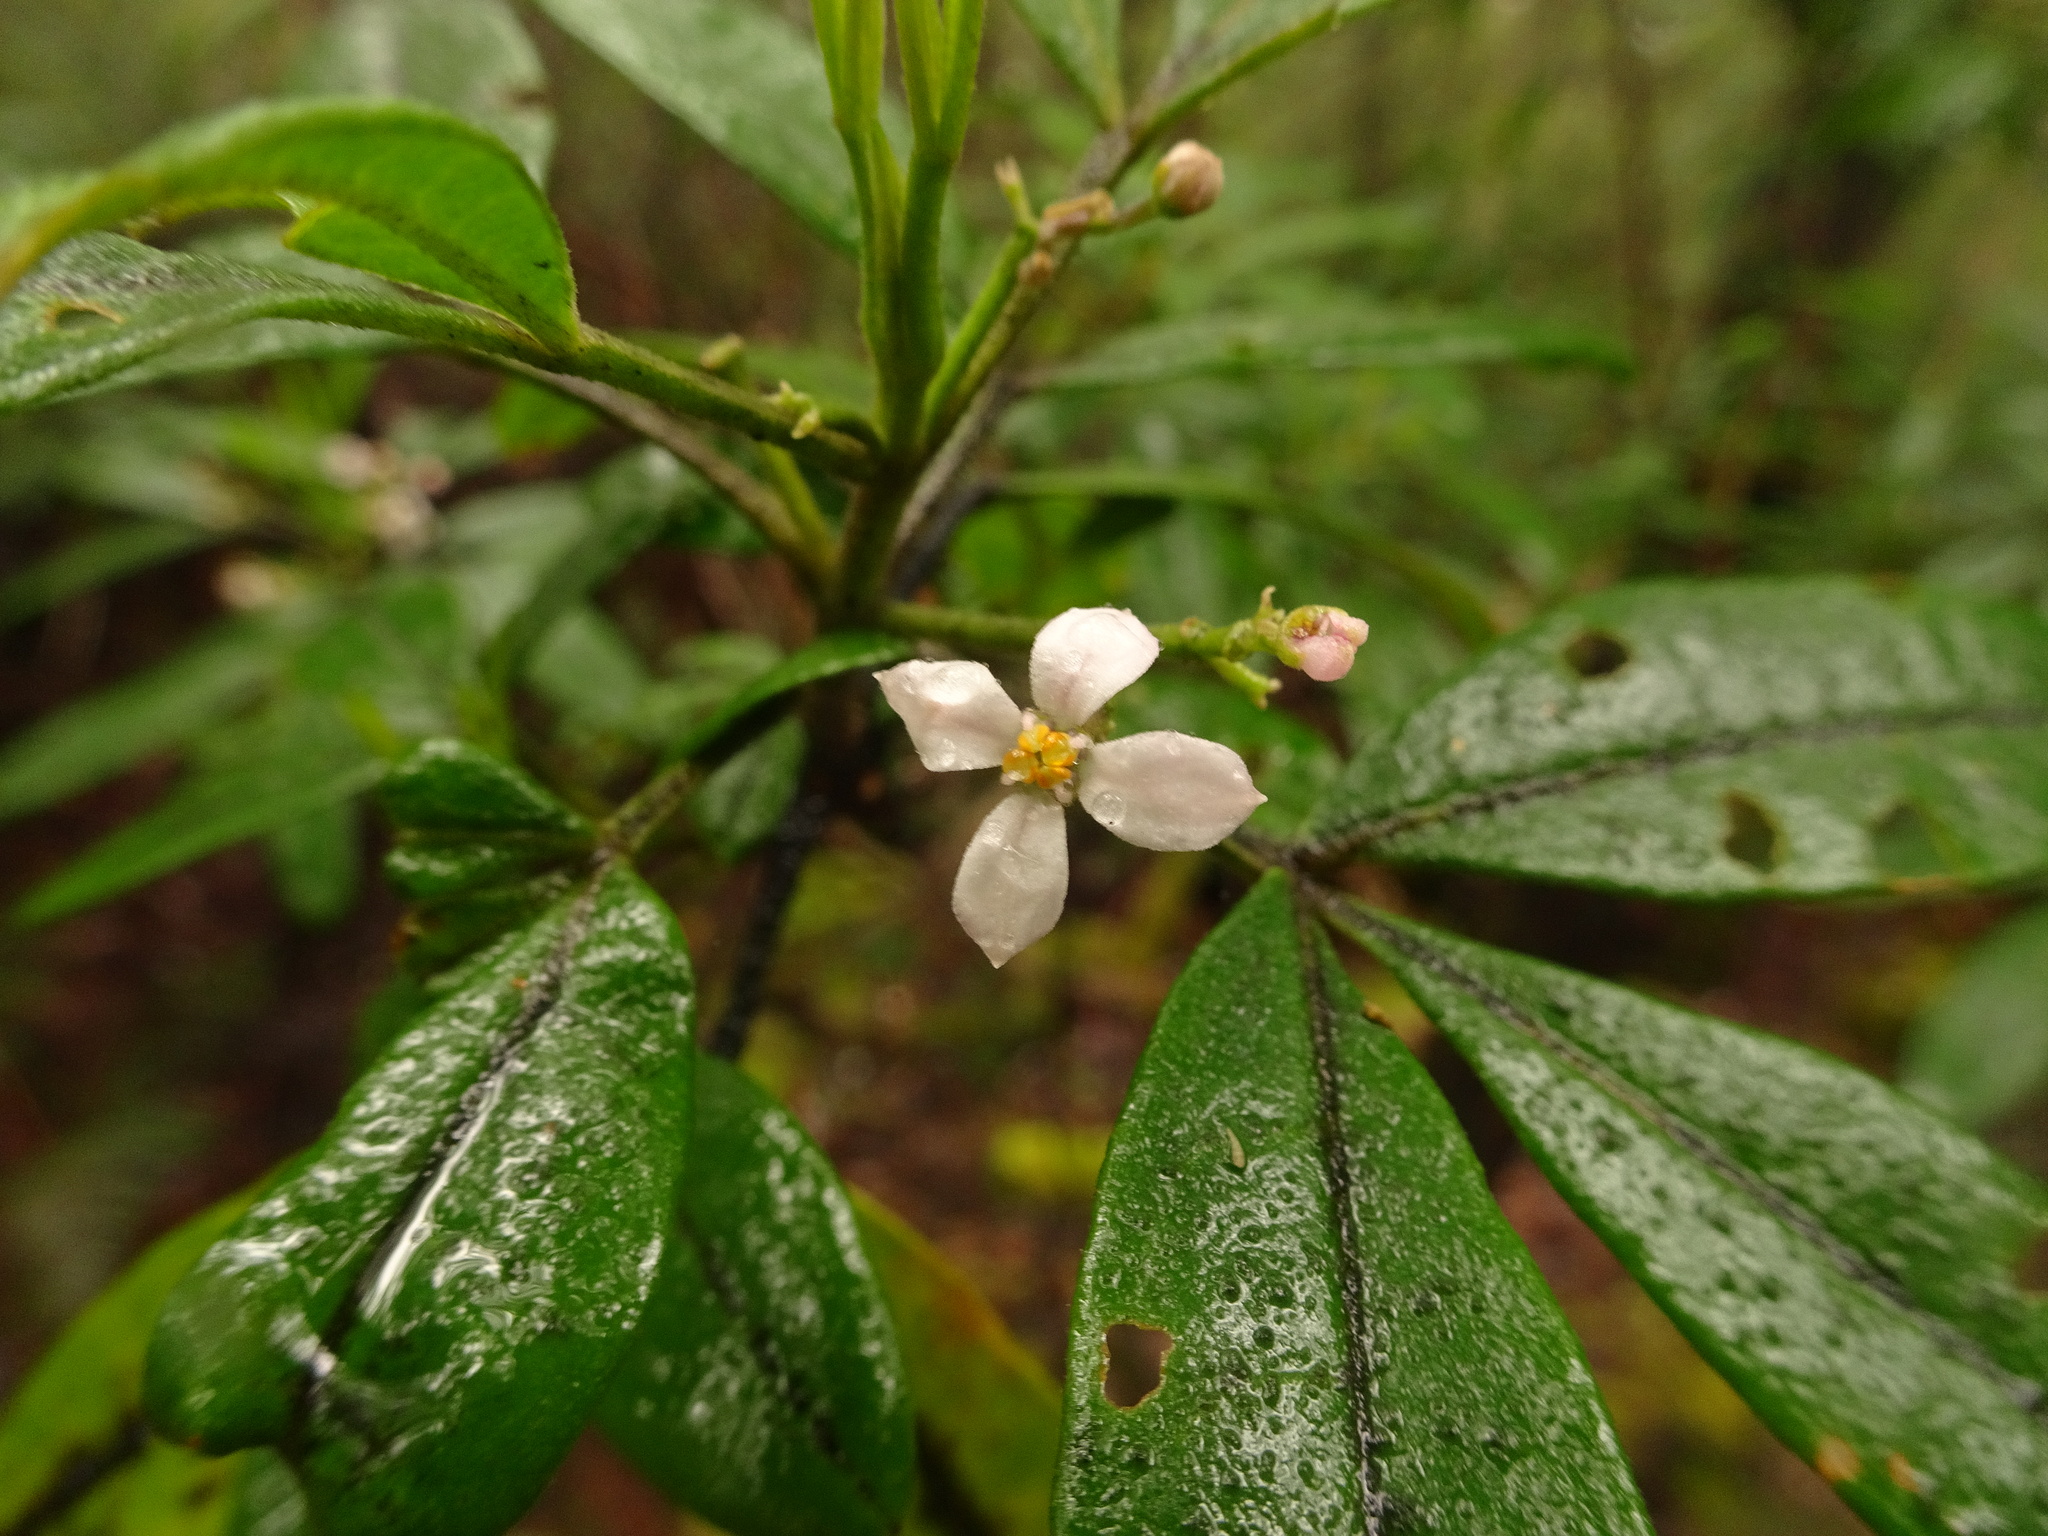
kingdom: Plantae
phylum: Tracheophyta
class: Magnoliopsida
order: Sapindales
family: Rutaceae
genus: Zieria
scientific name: Zieria arborescens
